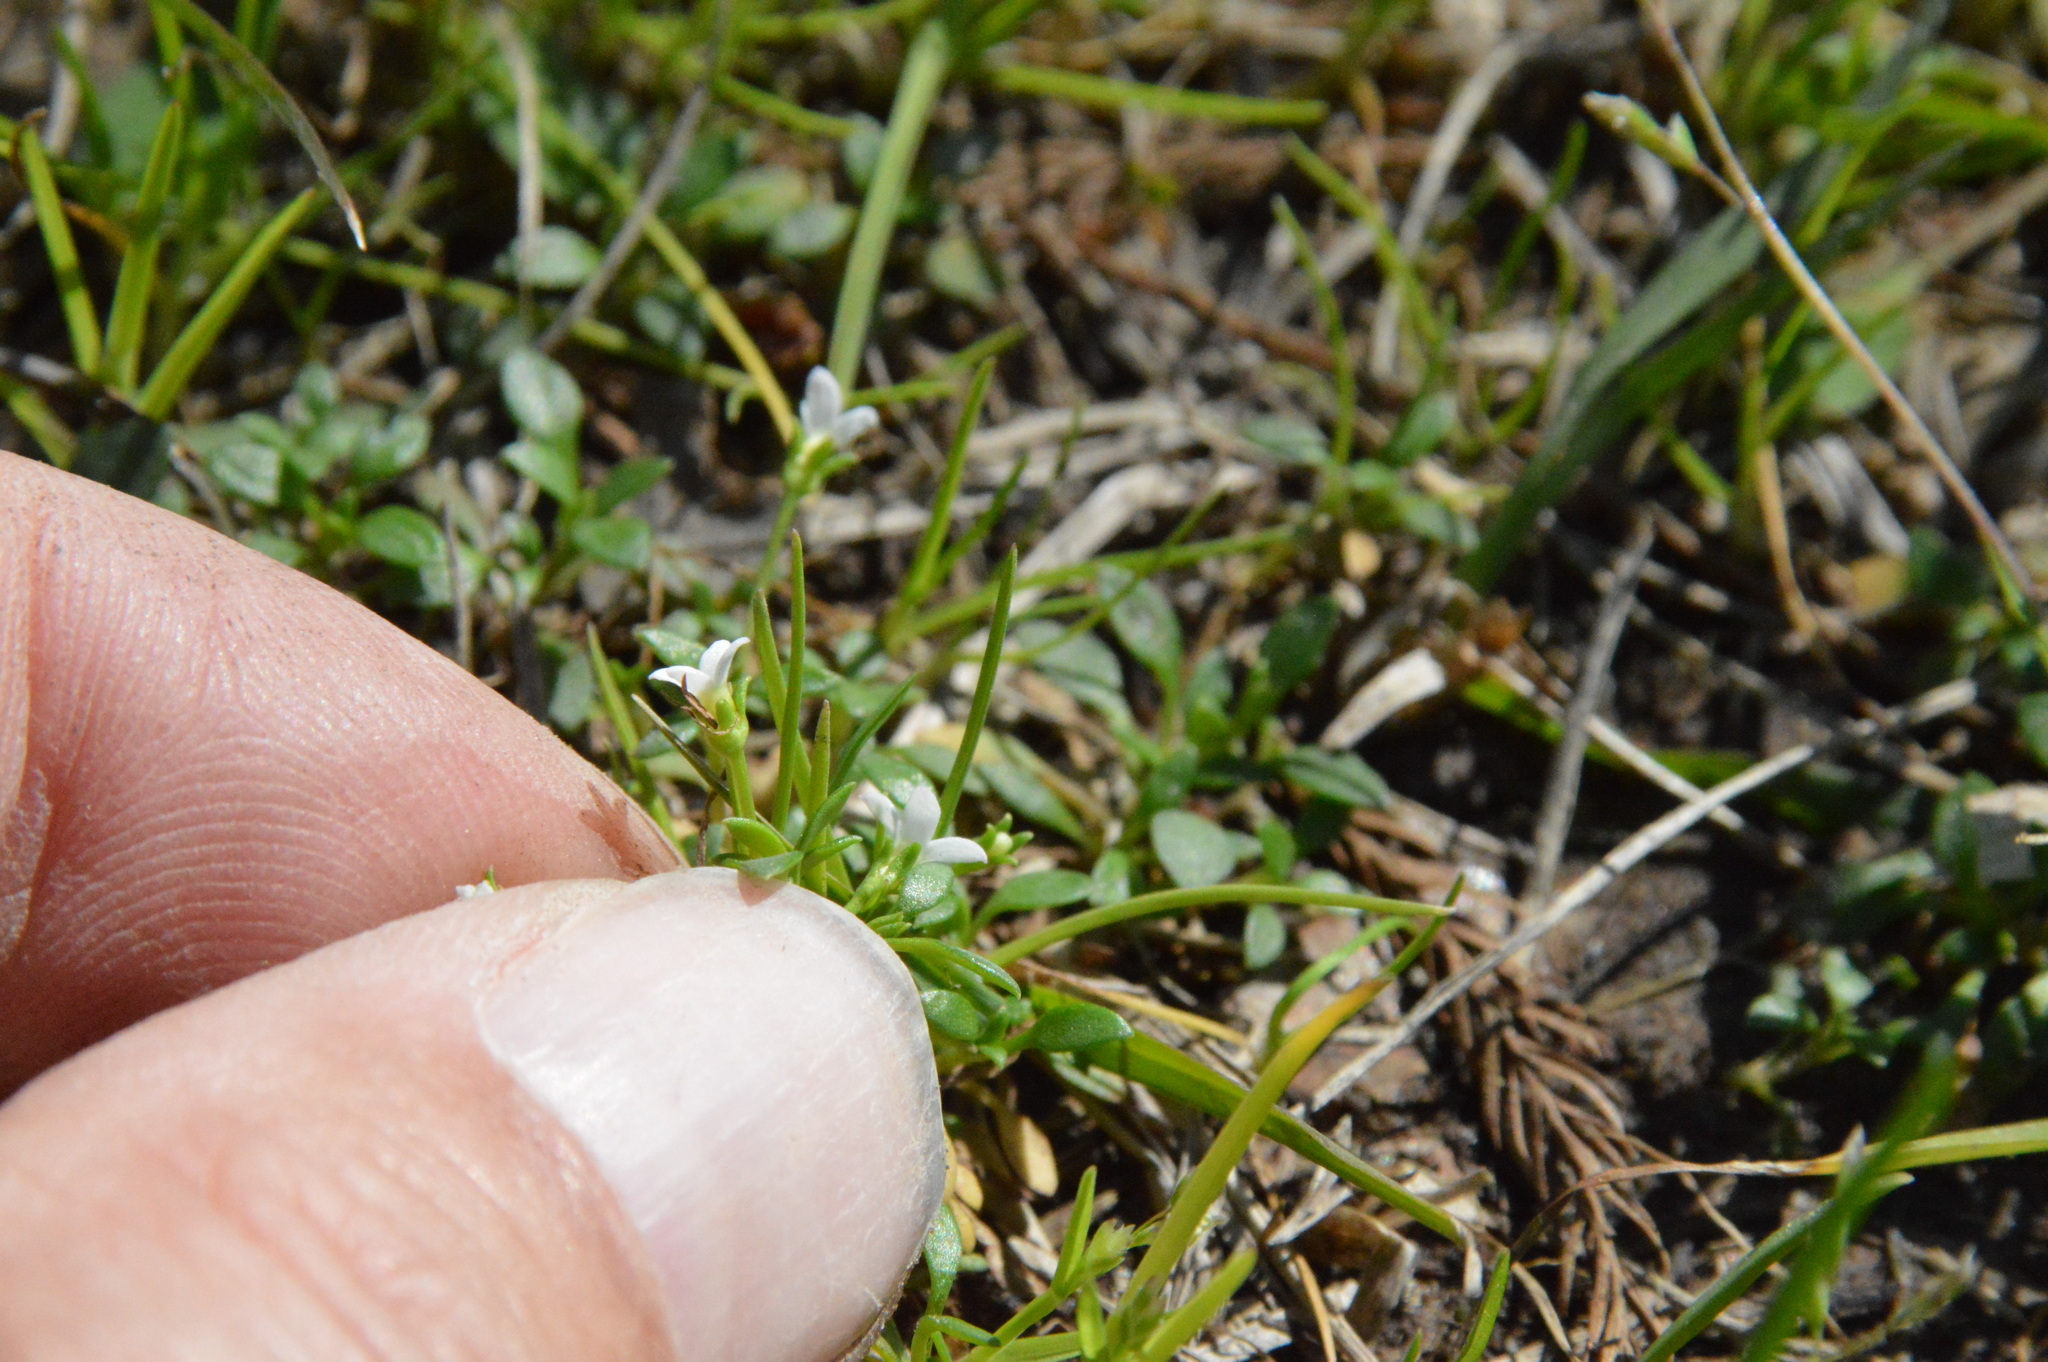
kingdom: Plantae
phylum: Tracheophyta
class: Magnoliopsida
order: Gentianales
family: Rubiaceae
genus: Houstonia
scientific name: Houstonia micrantha
